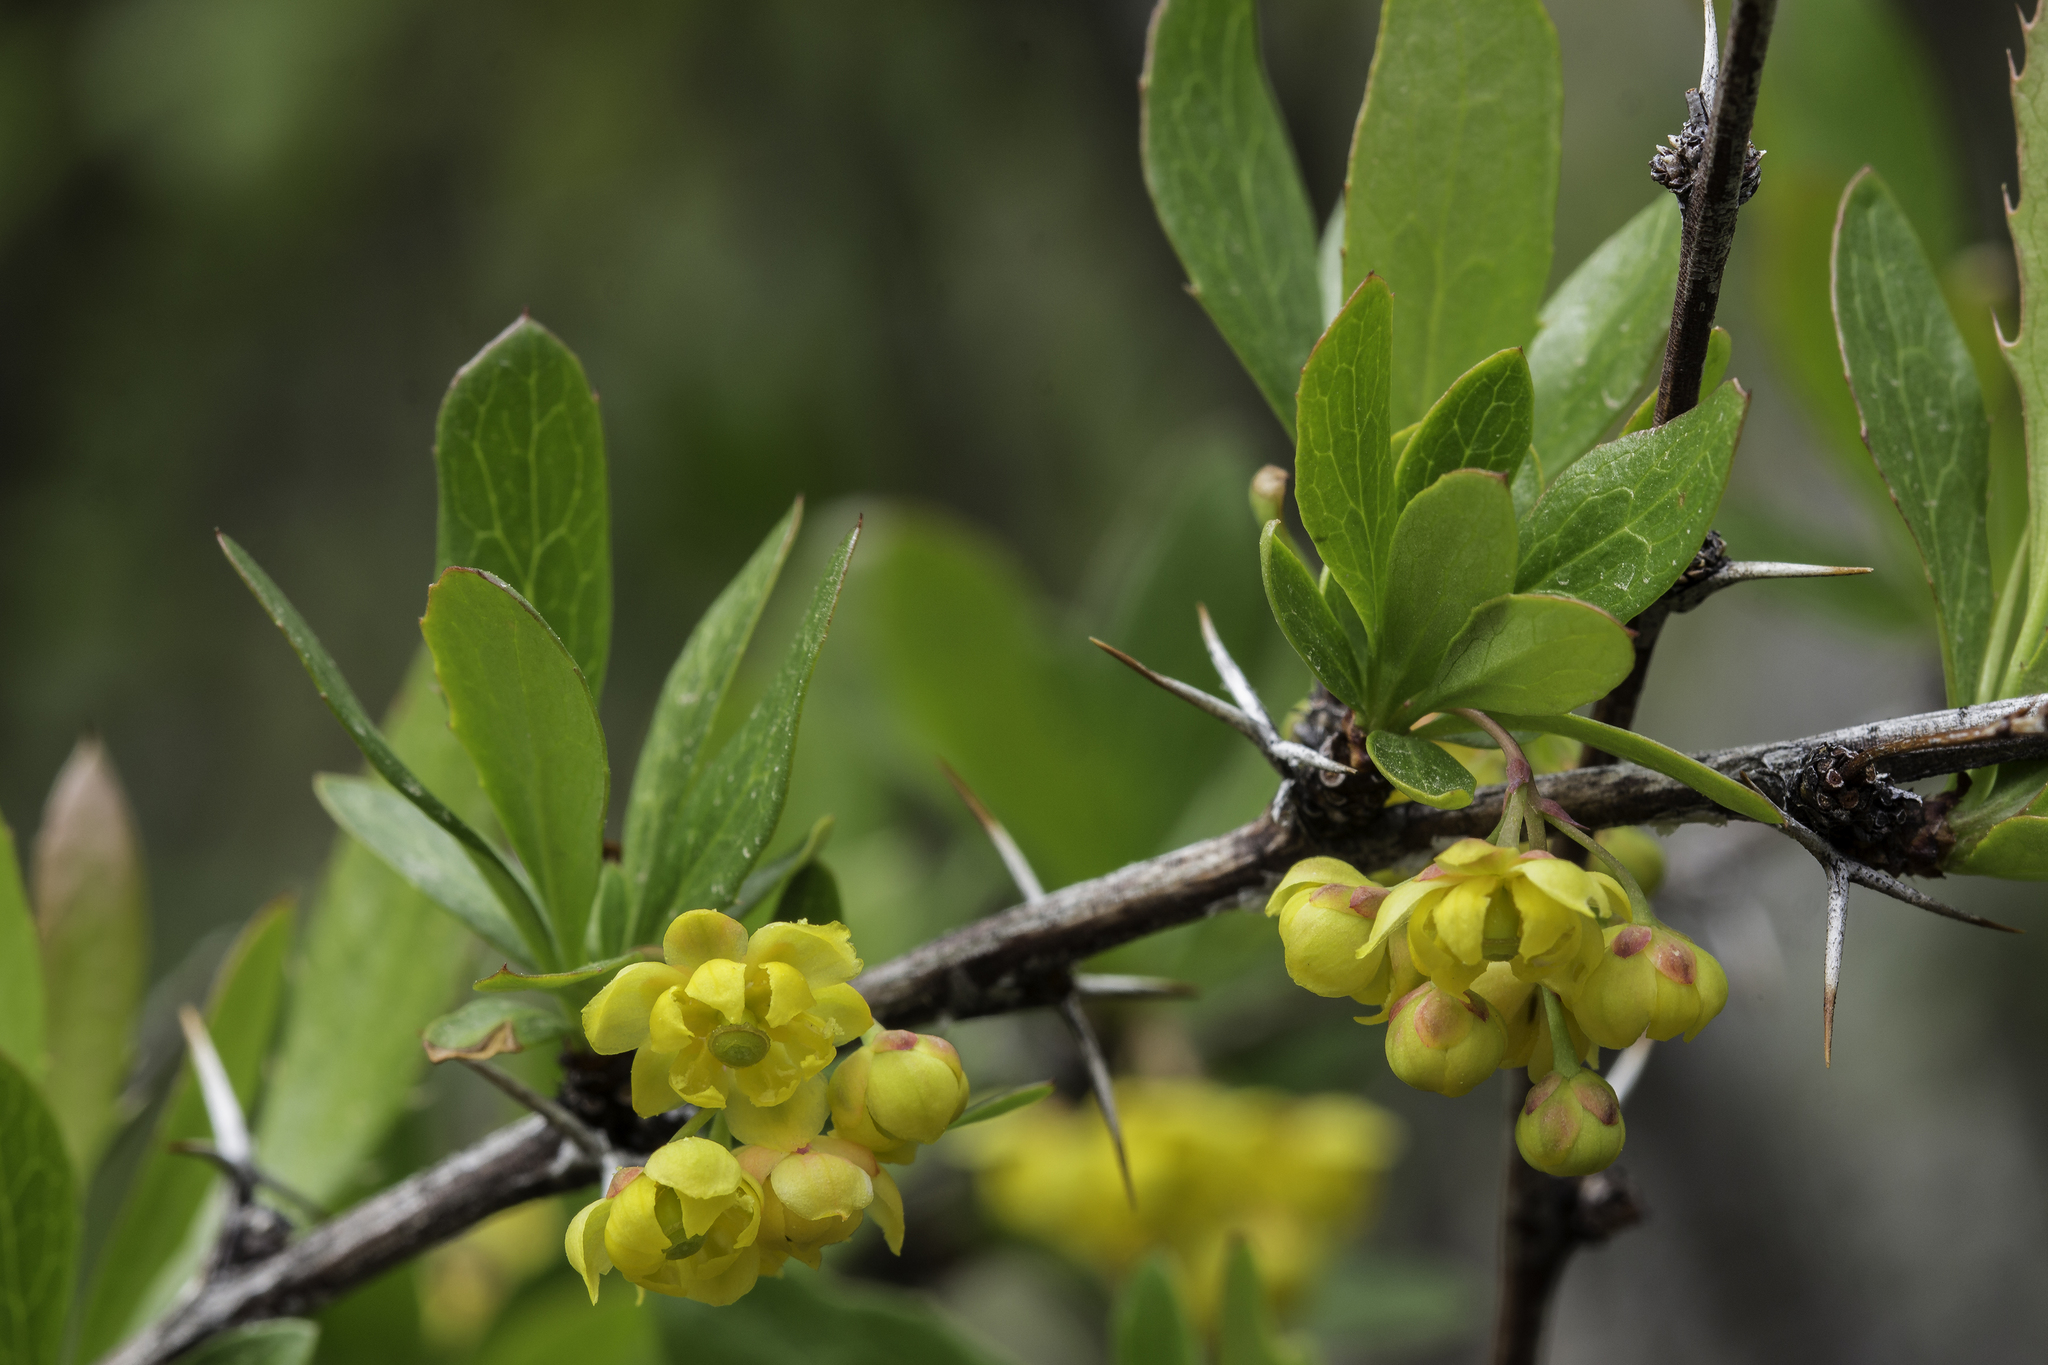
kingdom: Plantae
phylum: Tracheophyta
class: Magnoliopsida
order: Ranunculales
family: Berberidaceae
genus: Berberis
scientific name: Berberis fendleri
